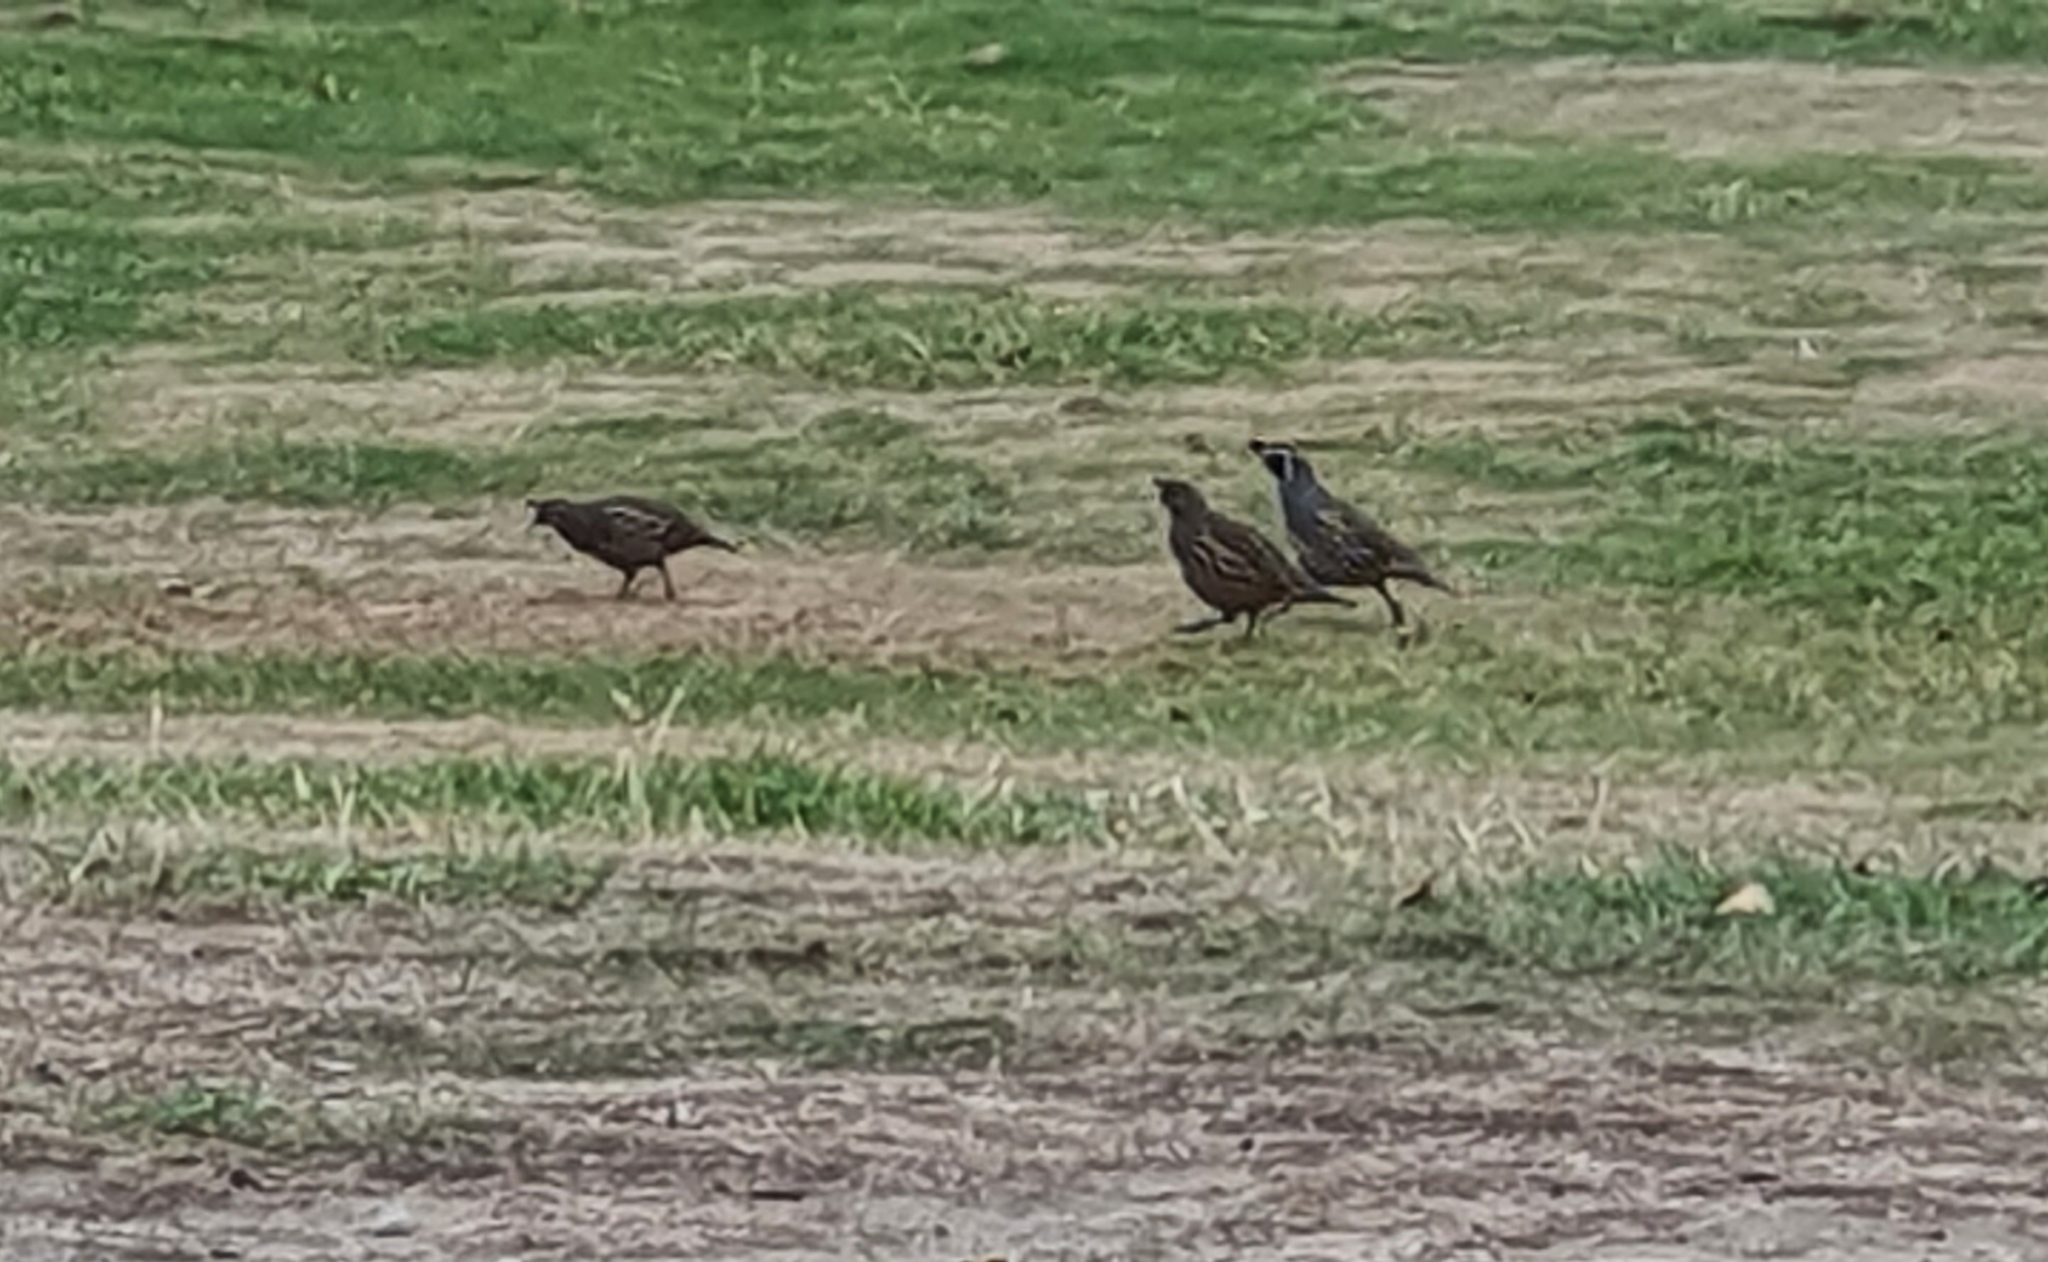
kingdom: Animalia
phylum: Chordata
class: Aves
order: Galliformes
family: Odontophoridae
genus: Callipepla
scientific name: Callipepla californica
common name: California quail
